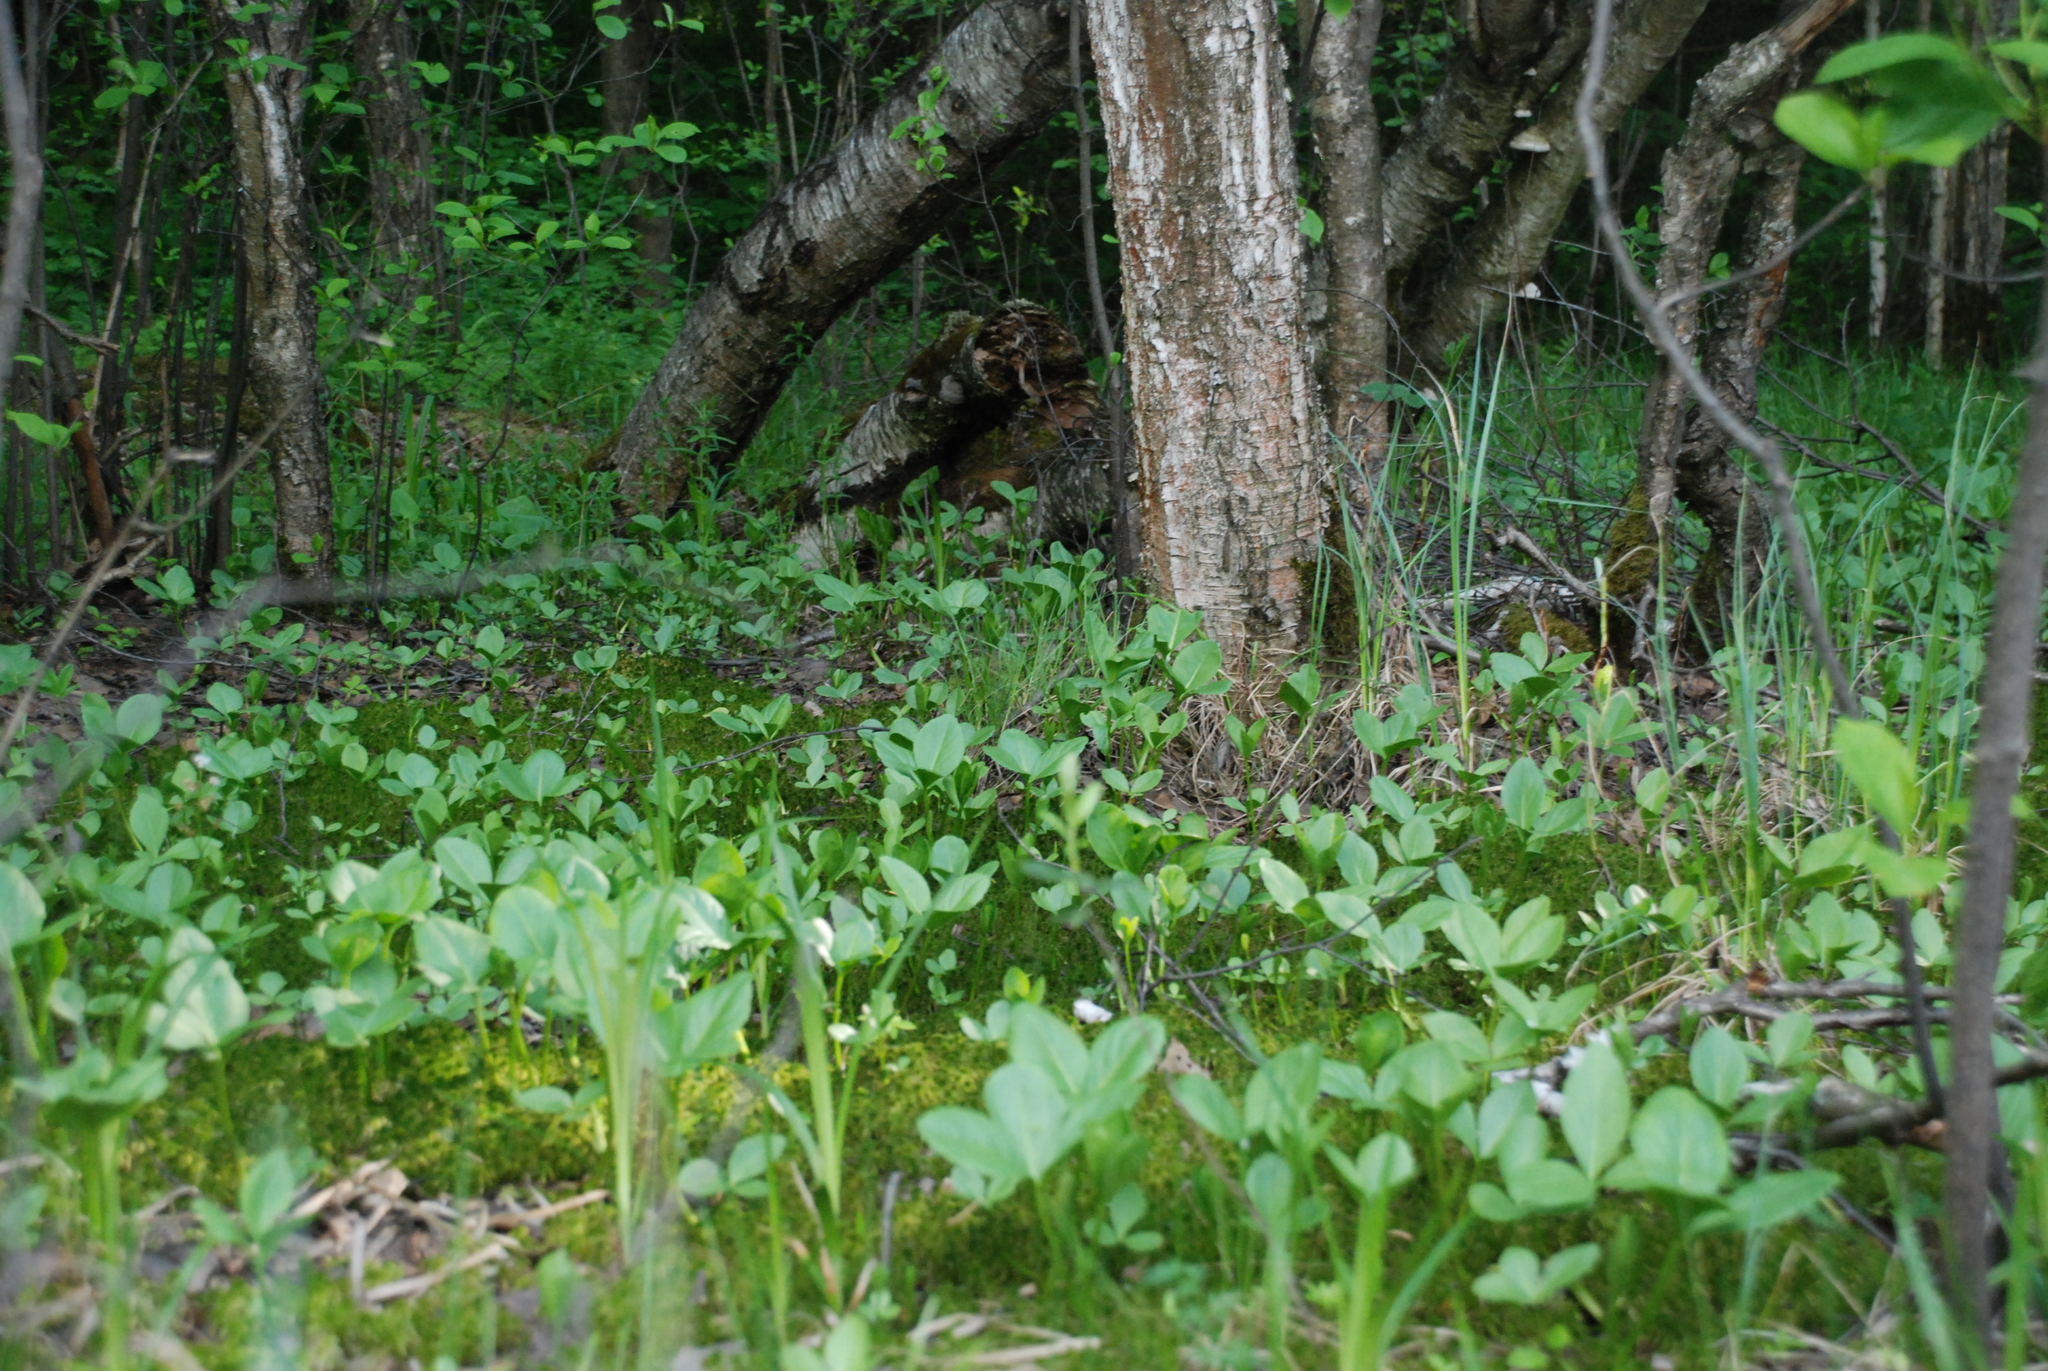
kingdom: Plantae
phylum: Tracheophyta
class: Magnoliopsida
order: Asterales
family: Menyanthaceae
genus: Menyanthes
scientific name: Menyanthes trifoliata
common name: Bogbean
